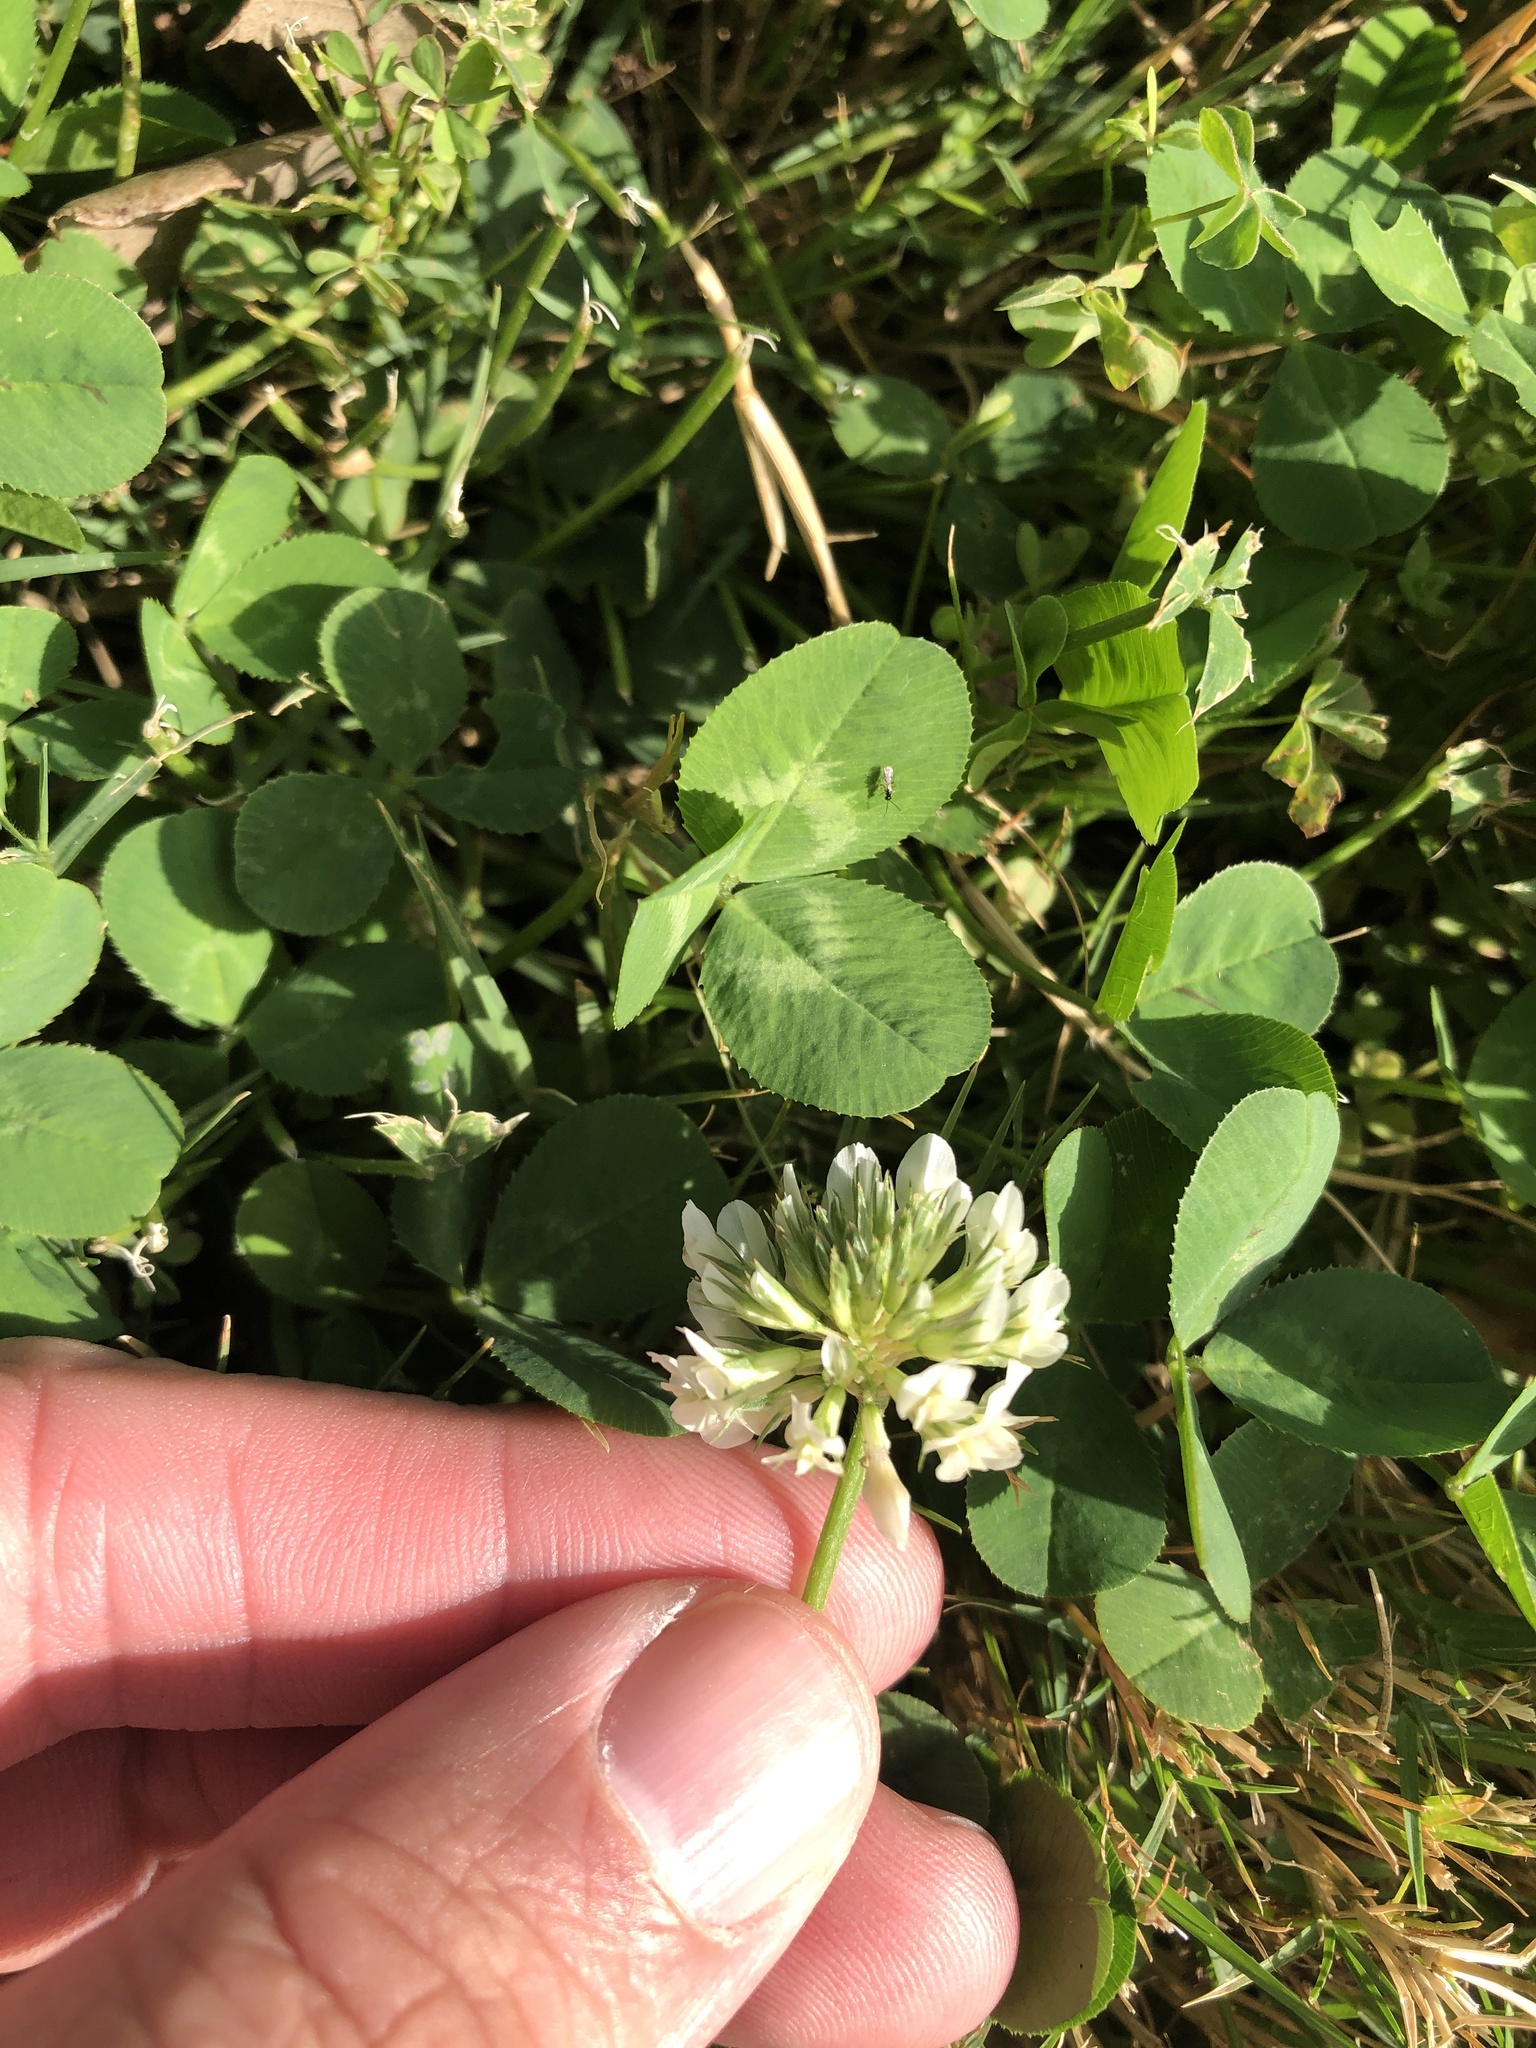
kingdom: Plantae
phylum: Tracheophyta
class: Magnoliopsida
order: Fabales
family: Fabaceae
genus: Trifolium
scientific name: Trifolium repens
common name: White clover
